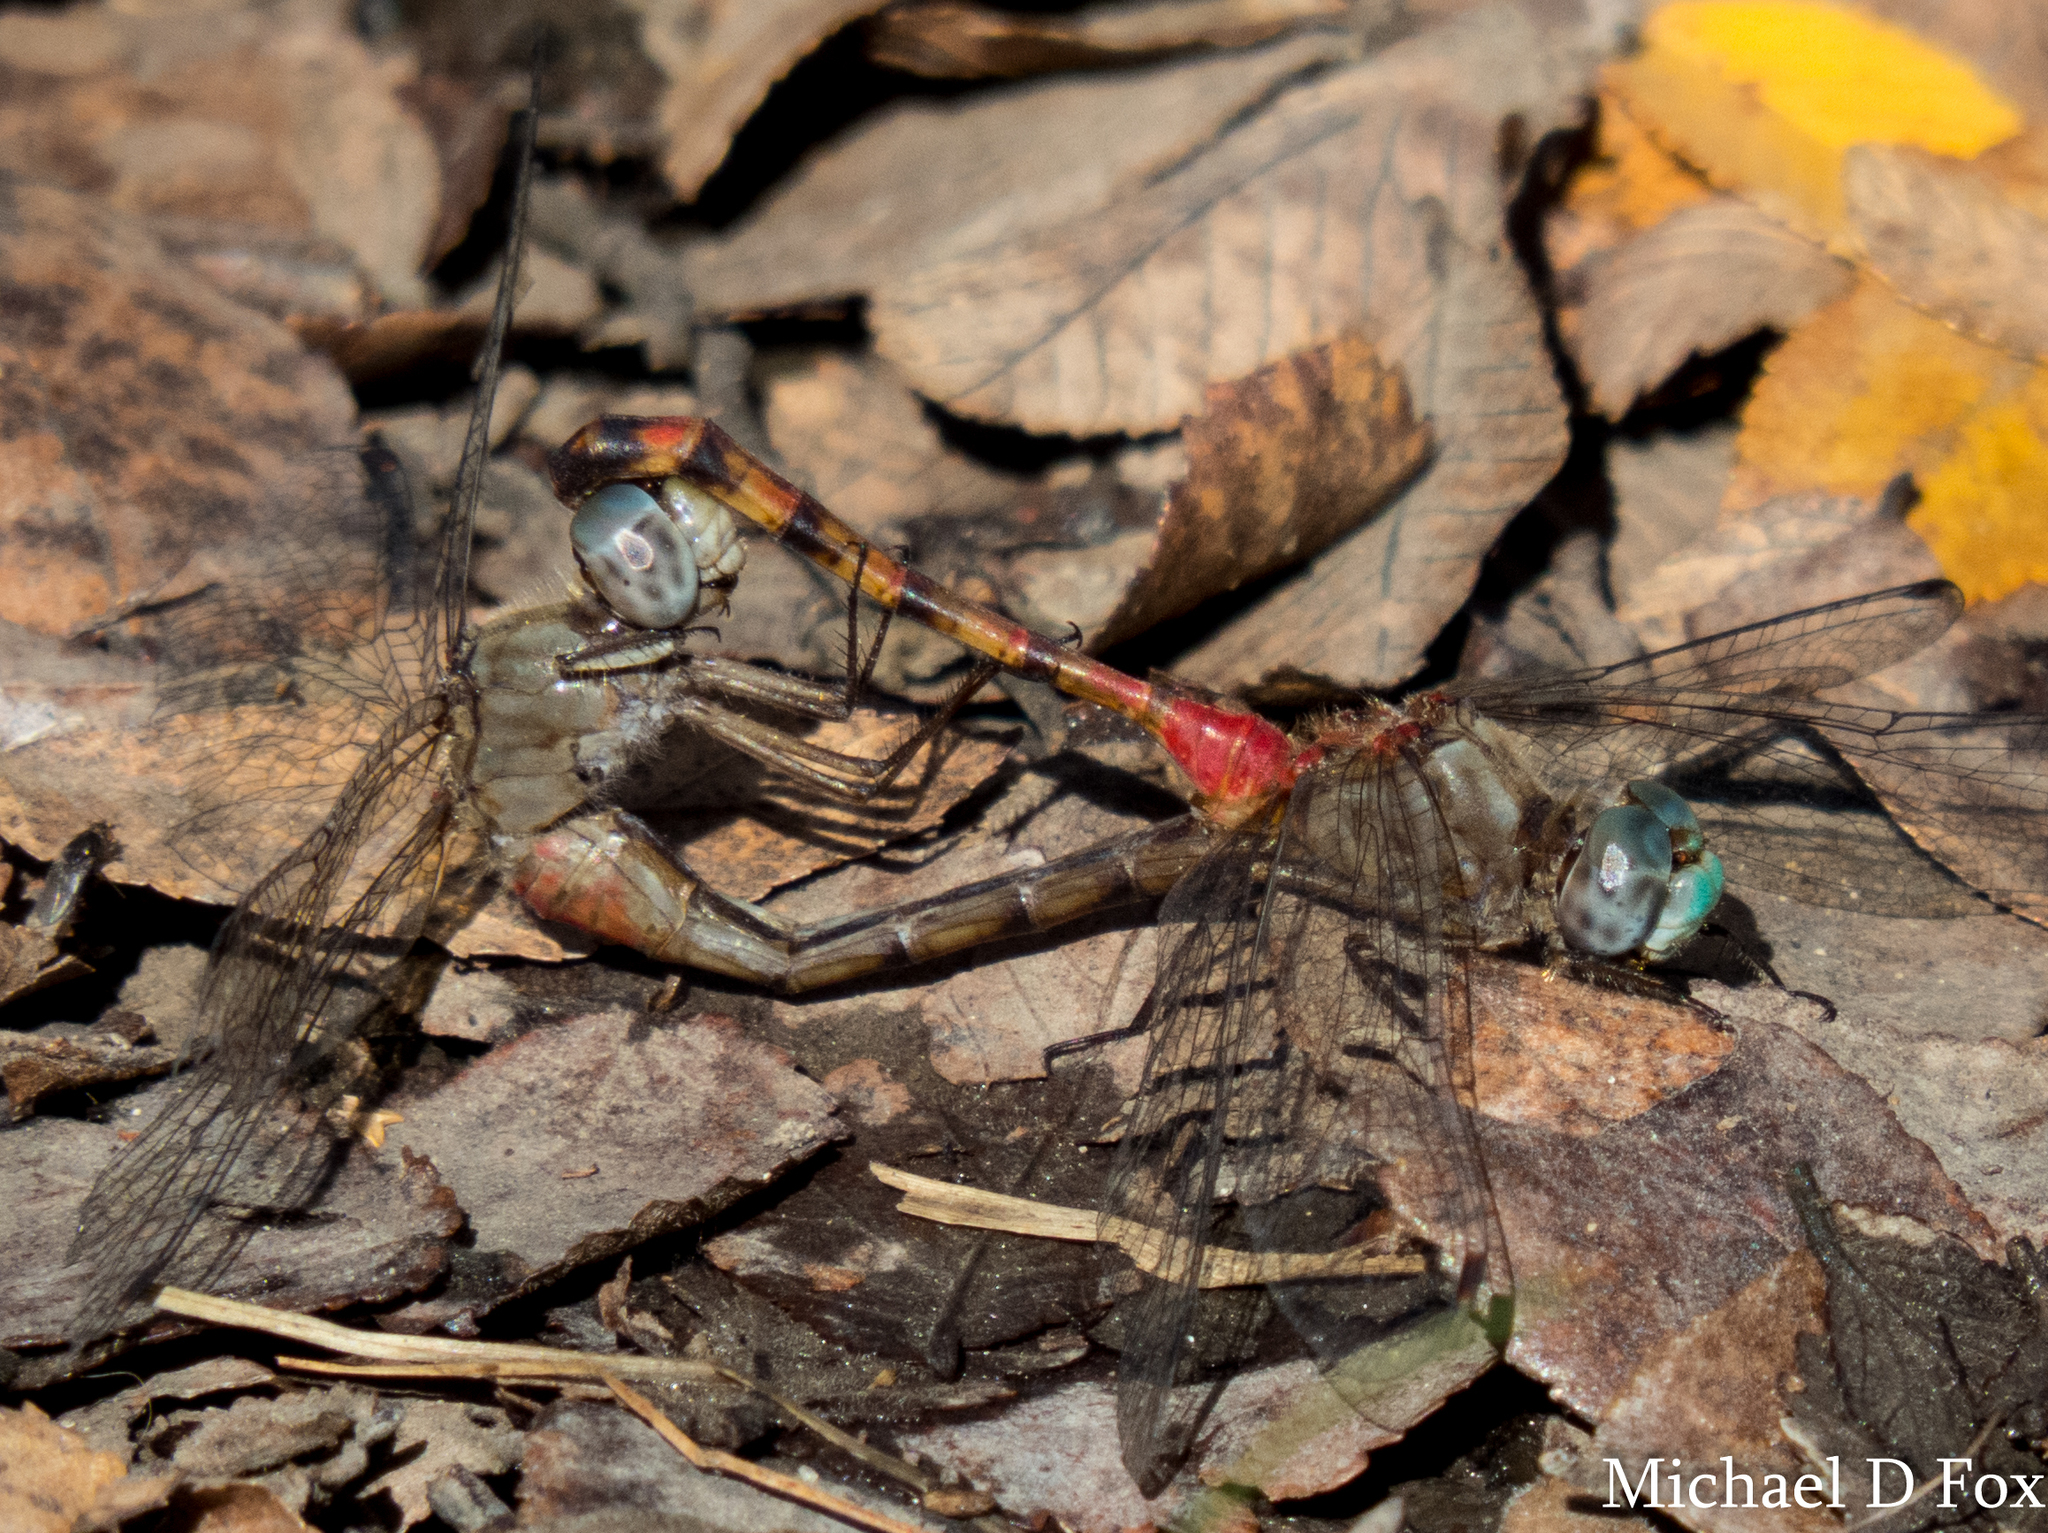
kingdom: Animalia
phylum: Arthropoda
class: Insecta
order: Odonata
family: Libellulidae
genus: Sympetrum
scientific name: Sympetrum ambiguum
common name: Blue-faced meadowhawk
